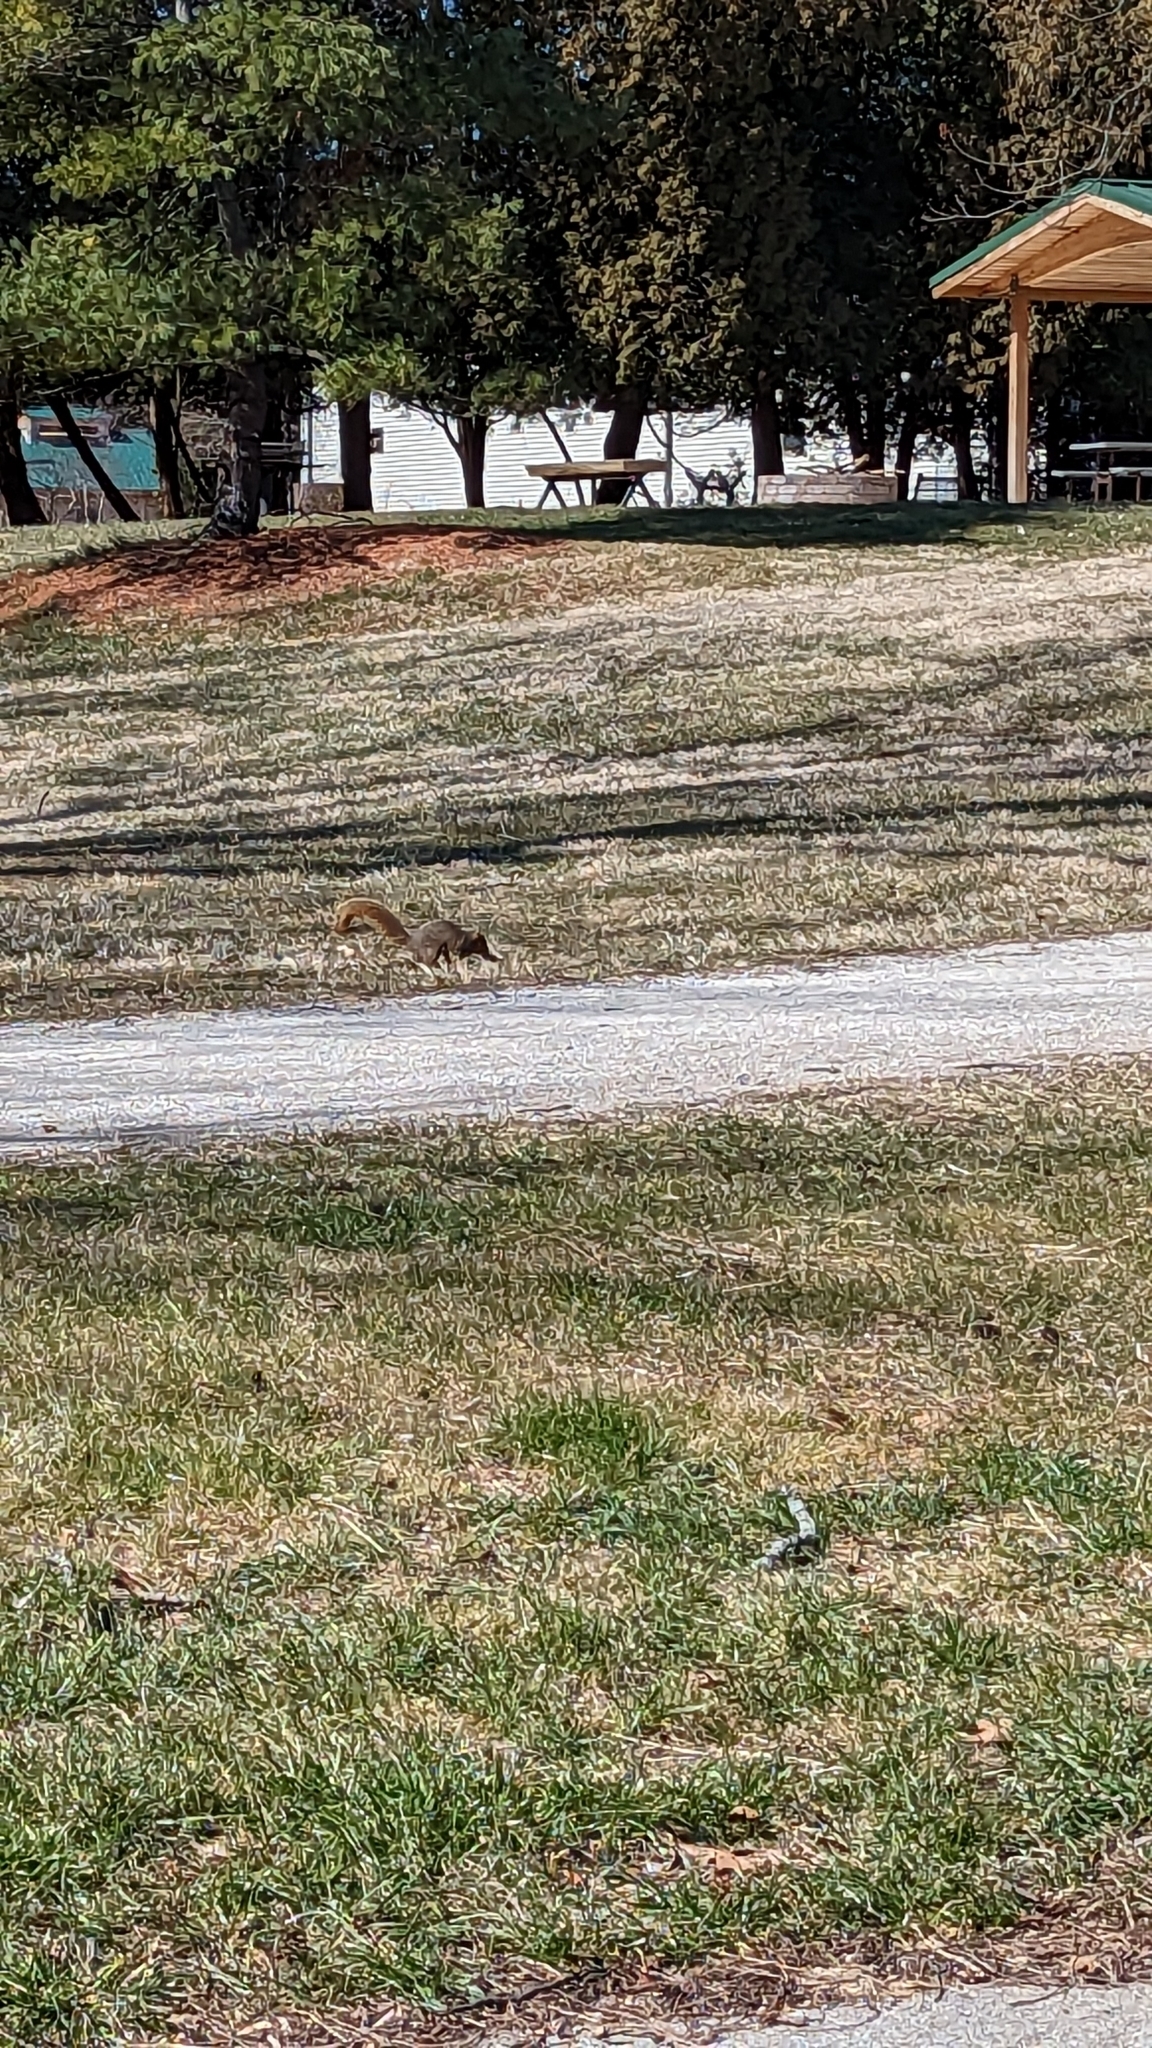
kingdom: Animalia
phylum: Chordata
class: Mammalia
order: Rodentia
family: Sciuridae
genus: Sciurus
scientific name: Sciurus niger
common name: Fox squirrel
